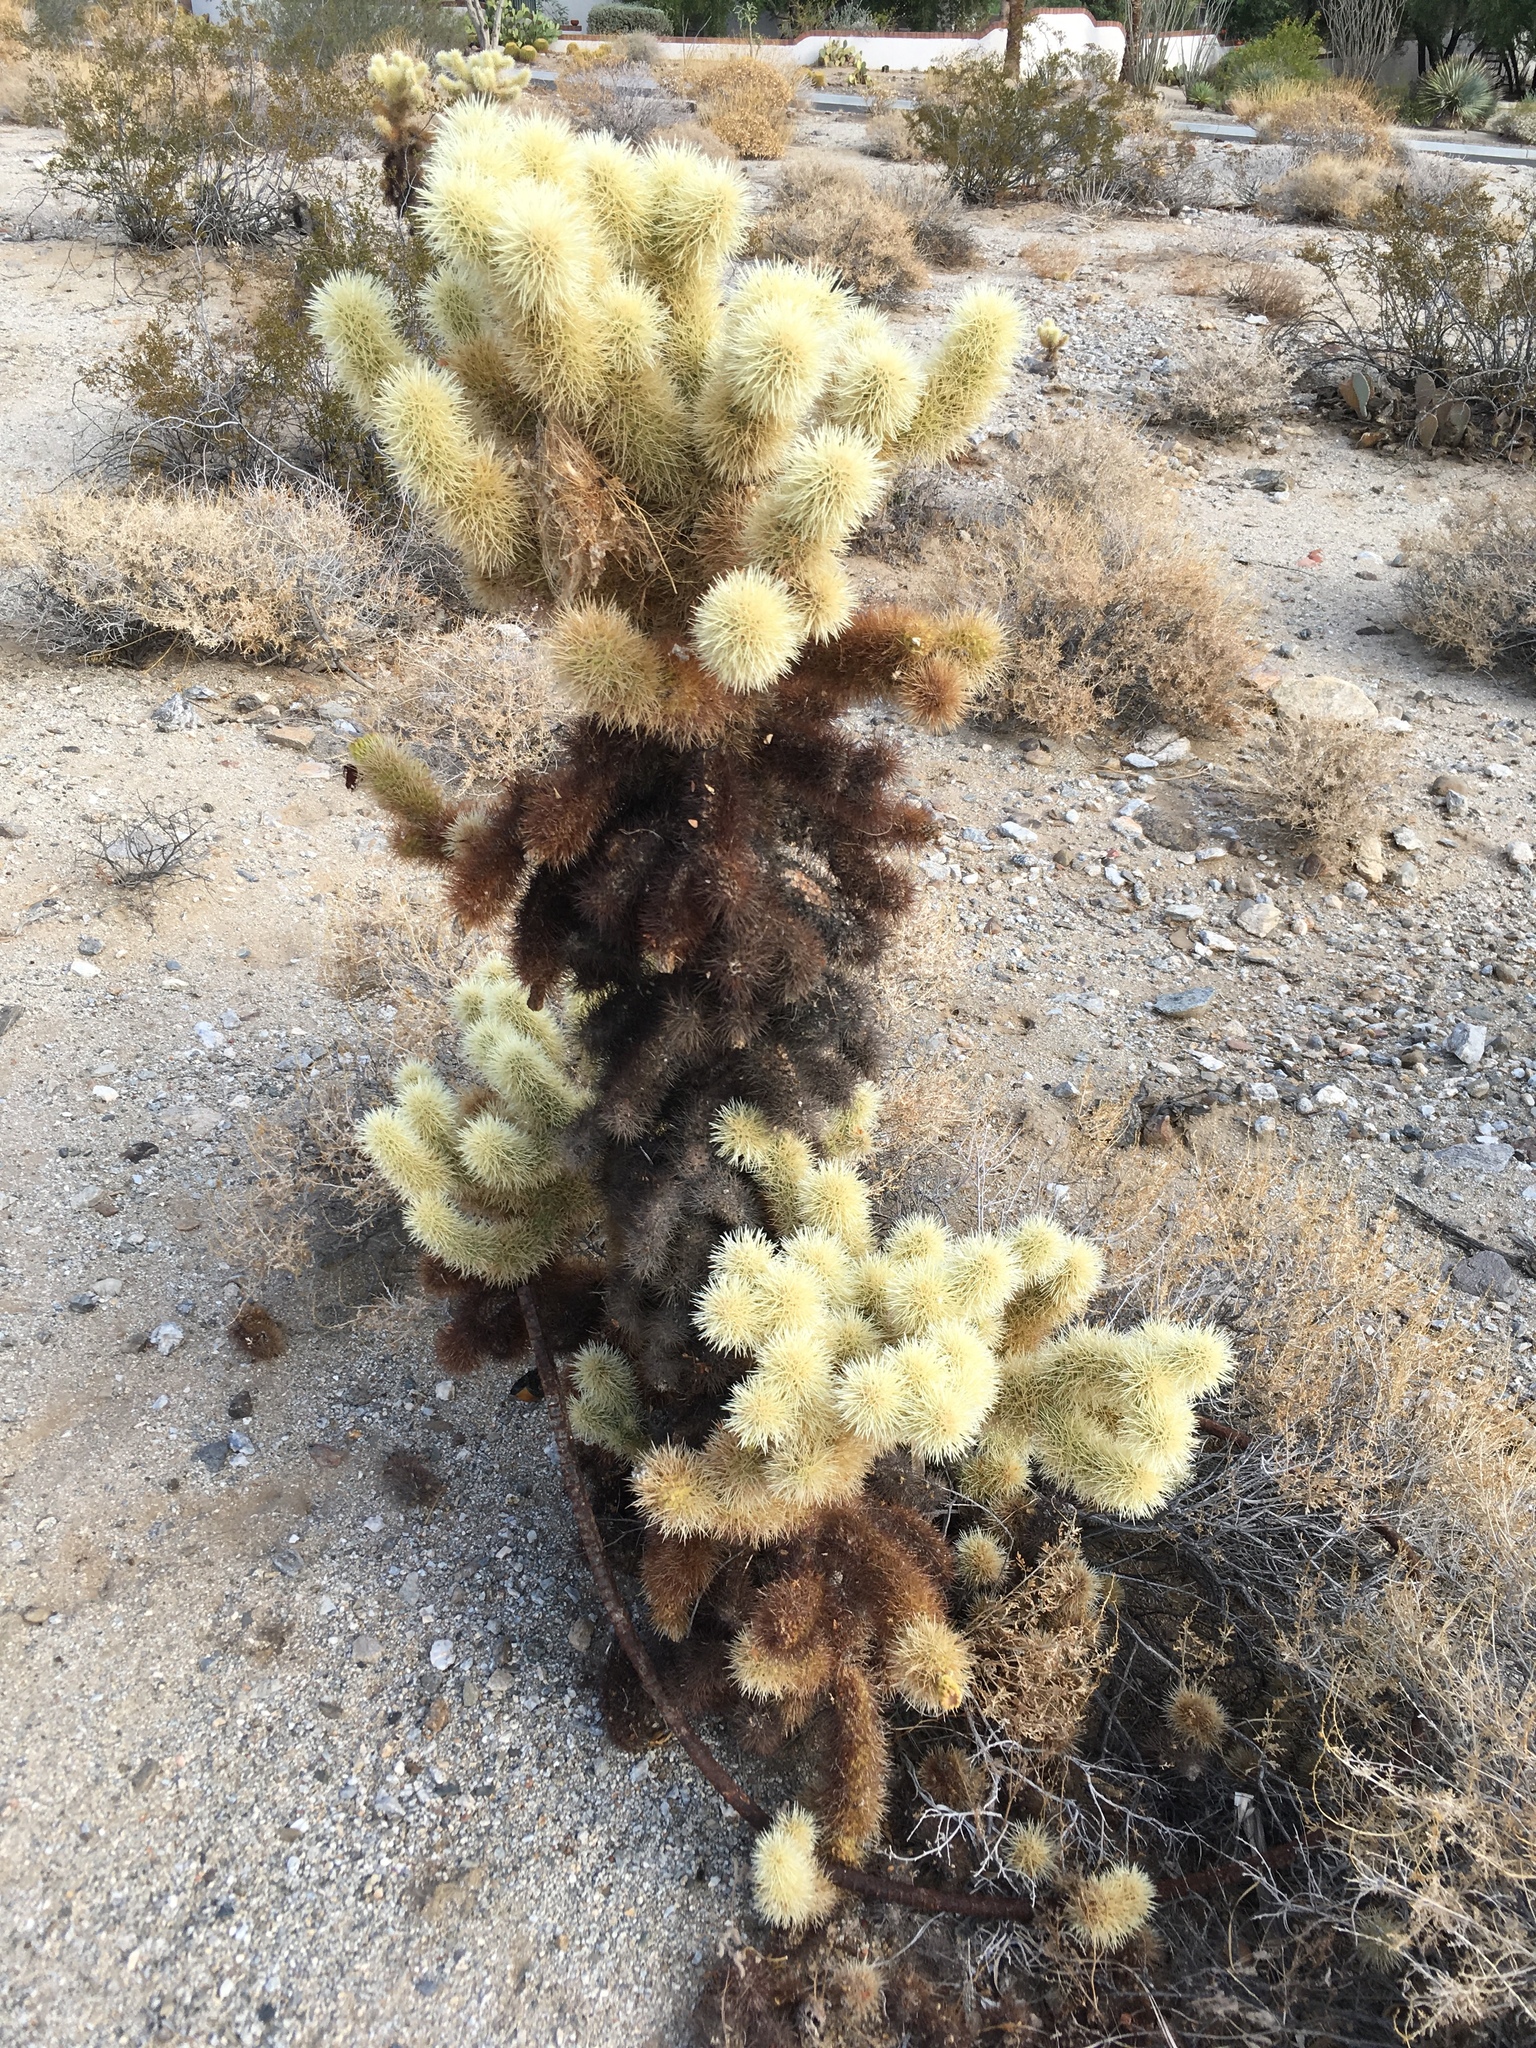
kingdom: Plantae
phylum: Tracheophyta
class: Magnoliopsida
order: Caryophyllales
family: Cactaceae
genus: Cylindropuntia
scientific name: Cylindropuntia fosbergii
